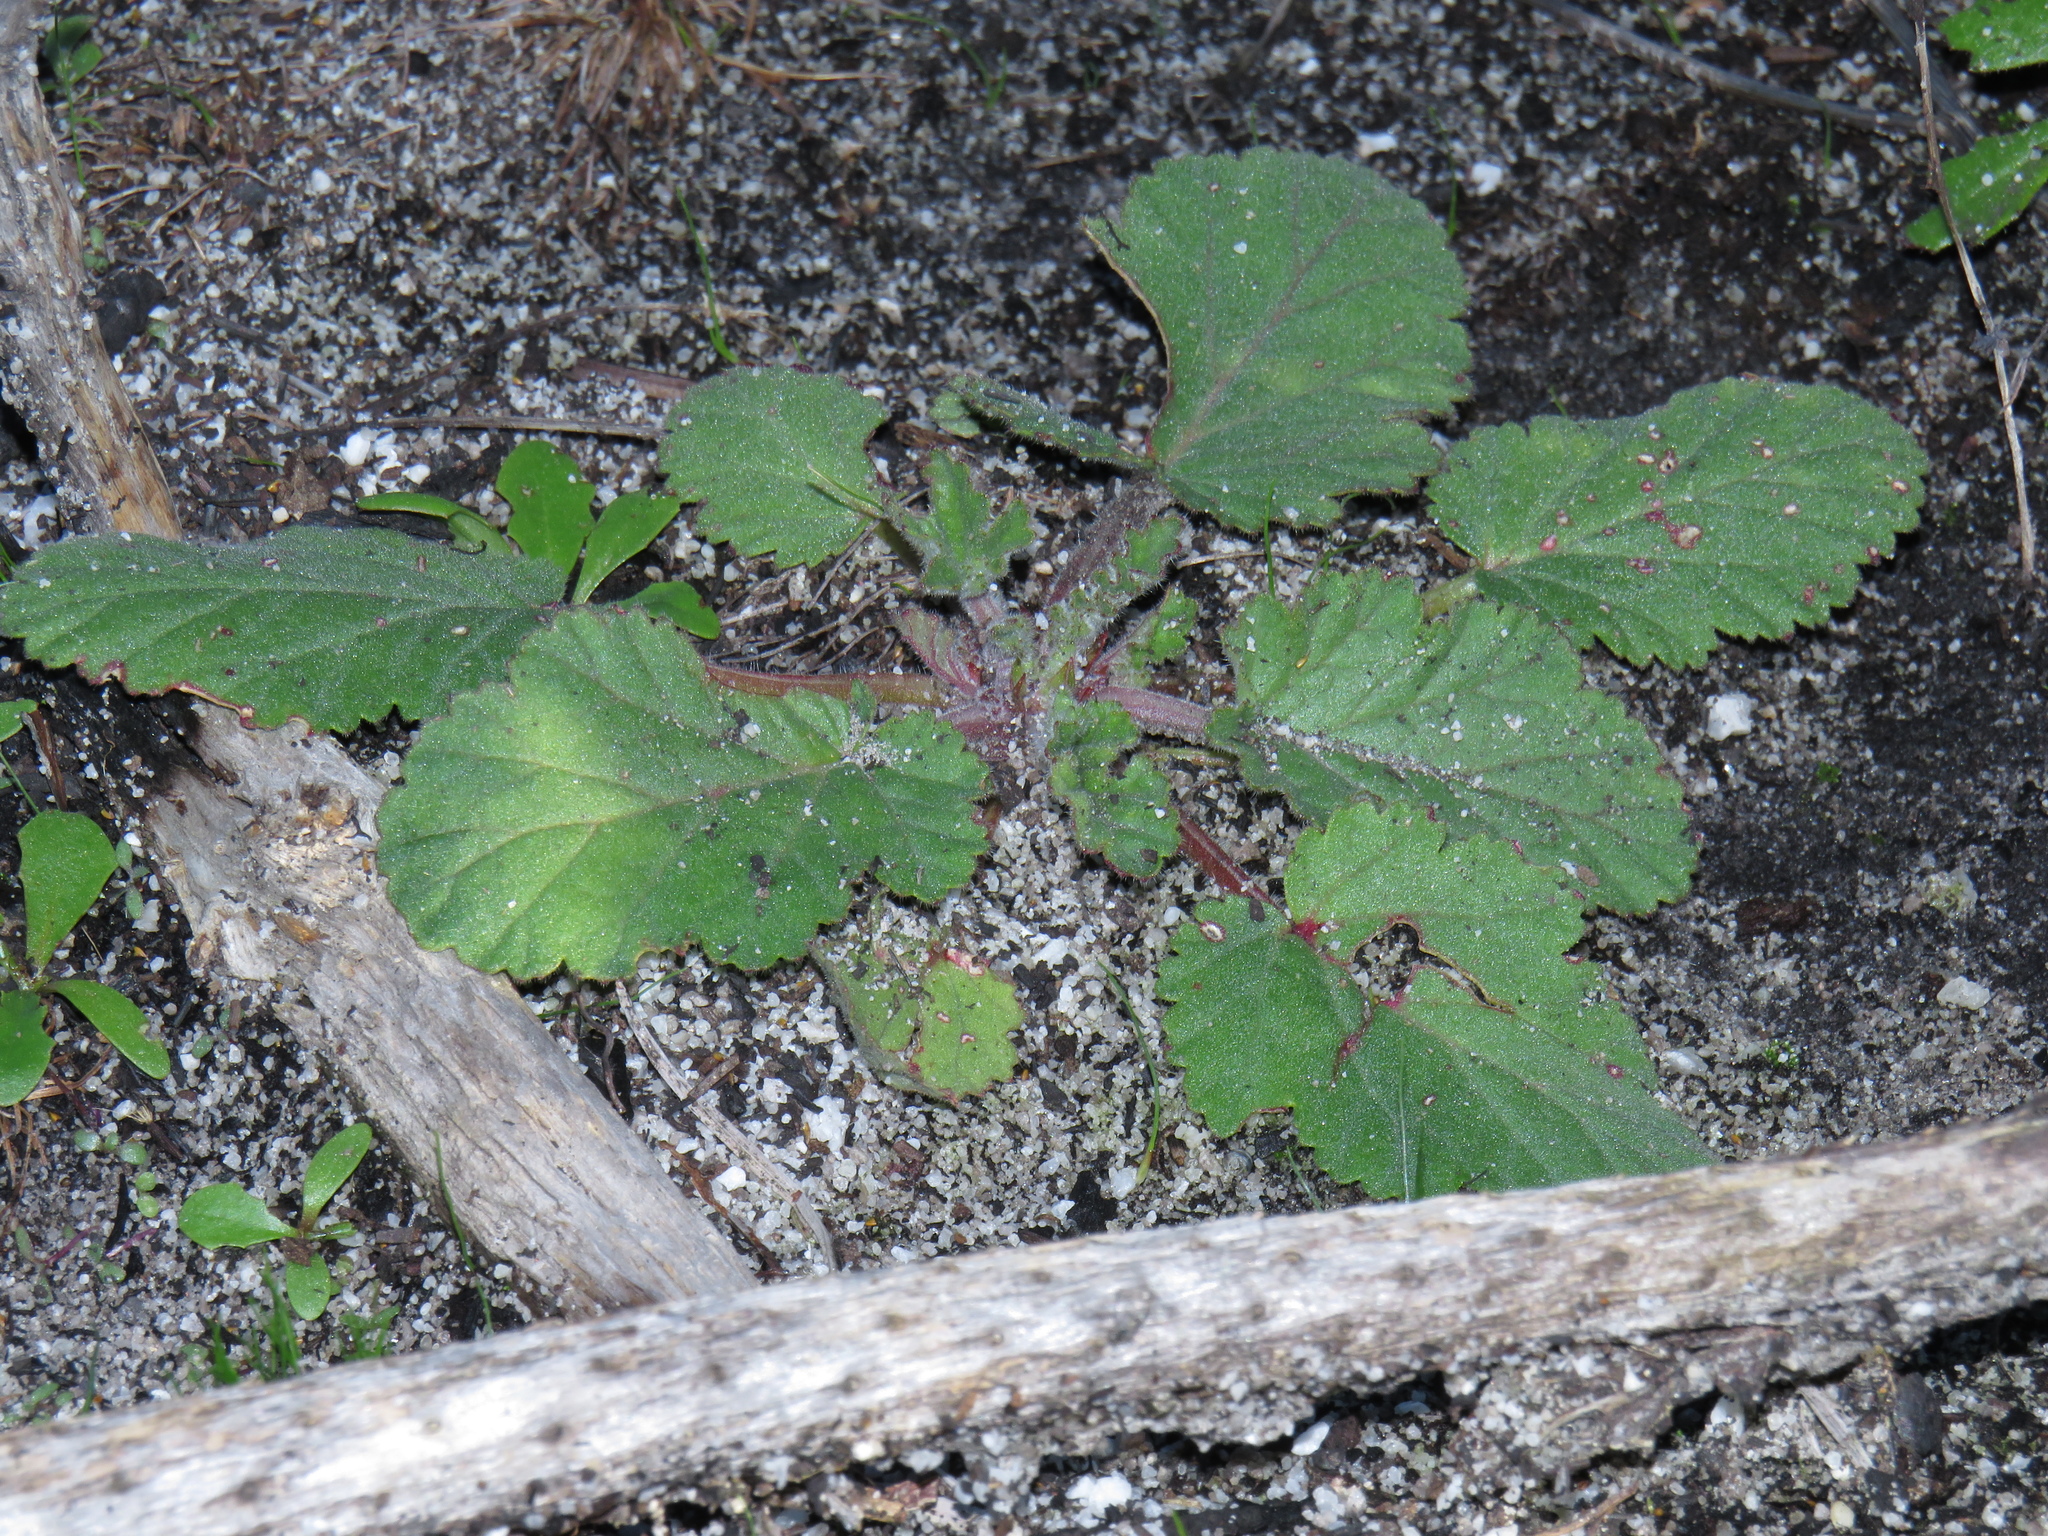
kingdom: Plantae
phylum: Tracheophyta
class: Magnoliopsida
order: Geraniales
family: Geraniaceae
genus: Pelargonium
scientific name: Pelargonium althaeoides
